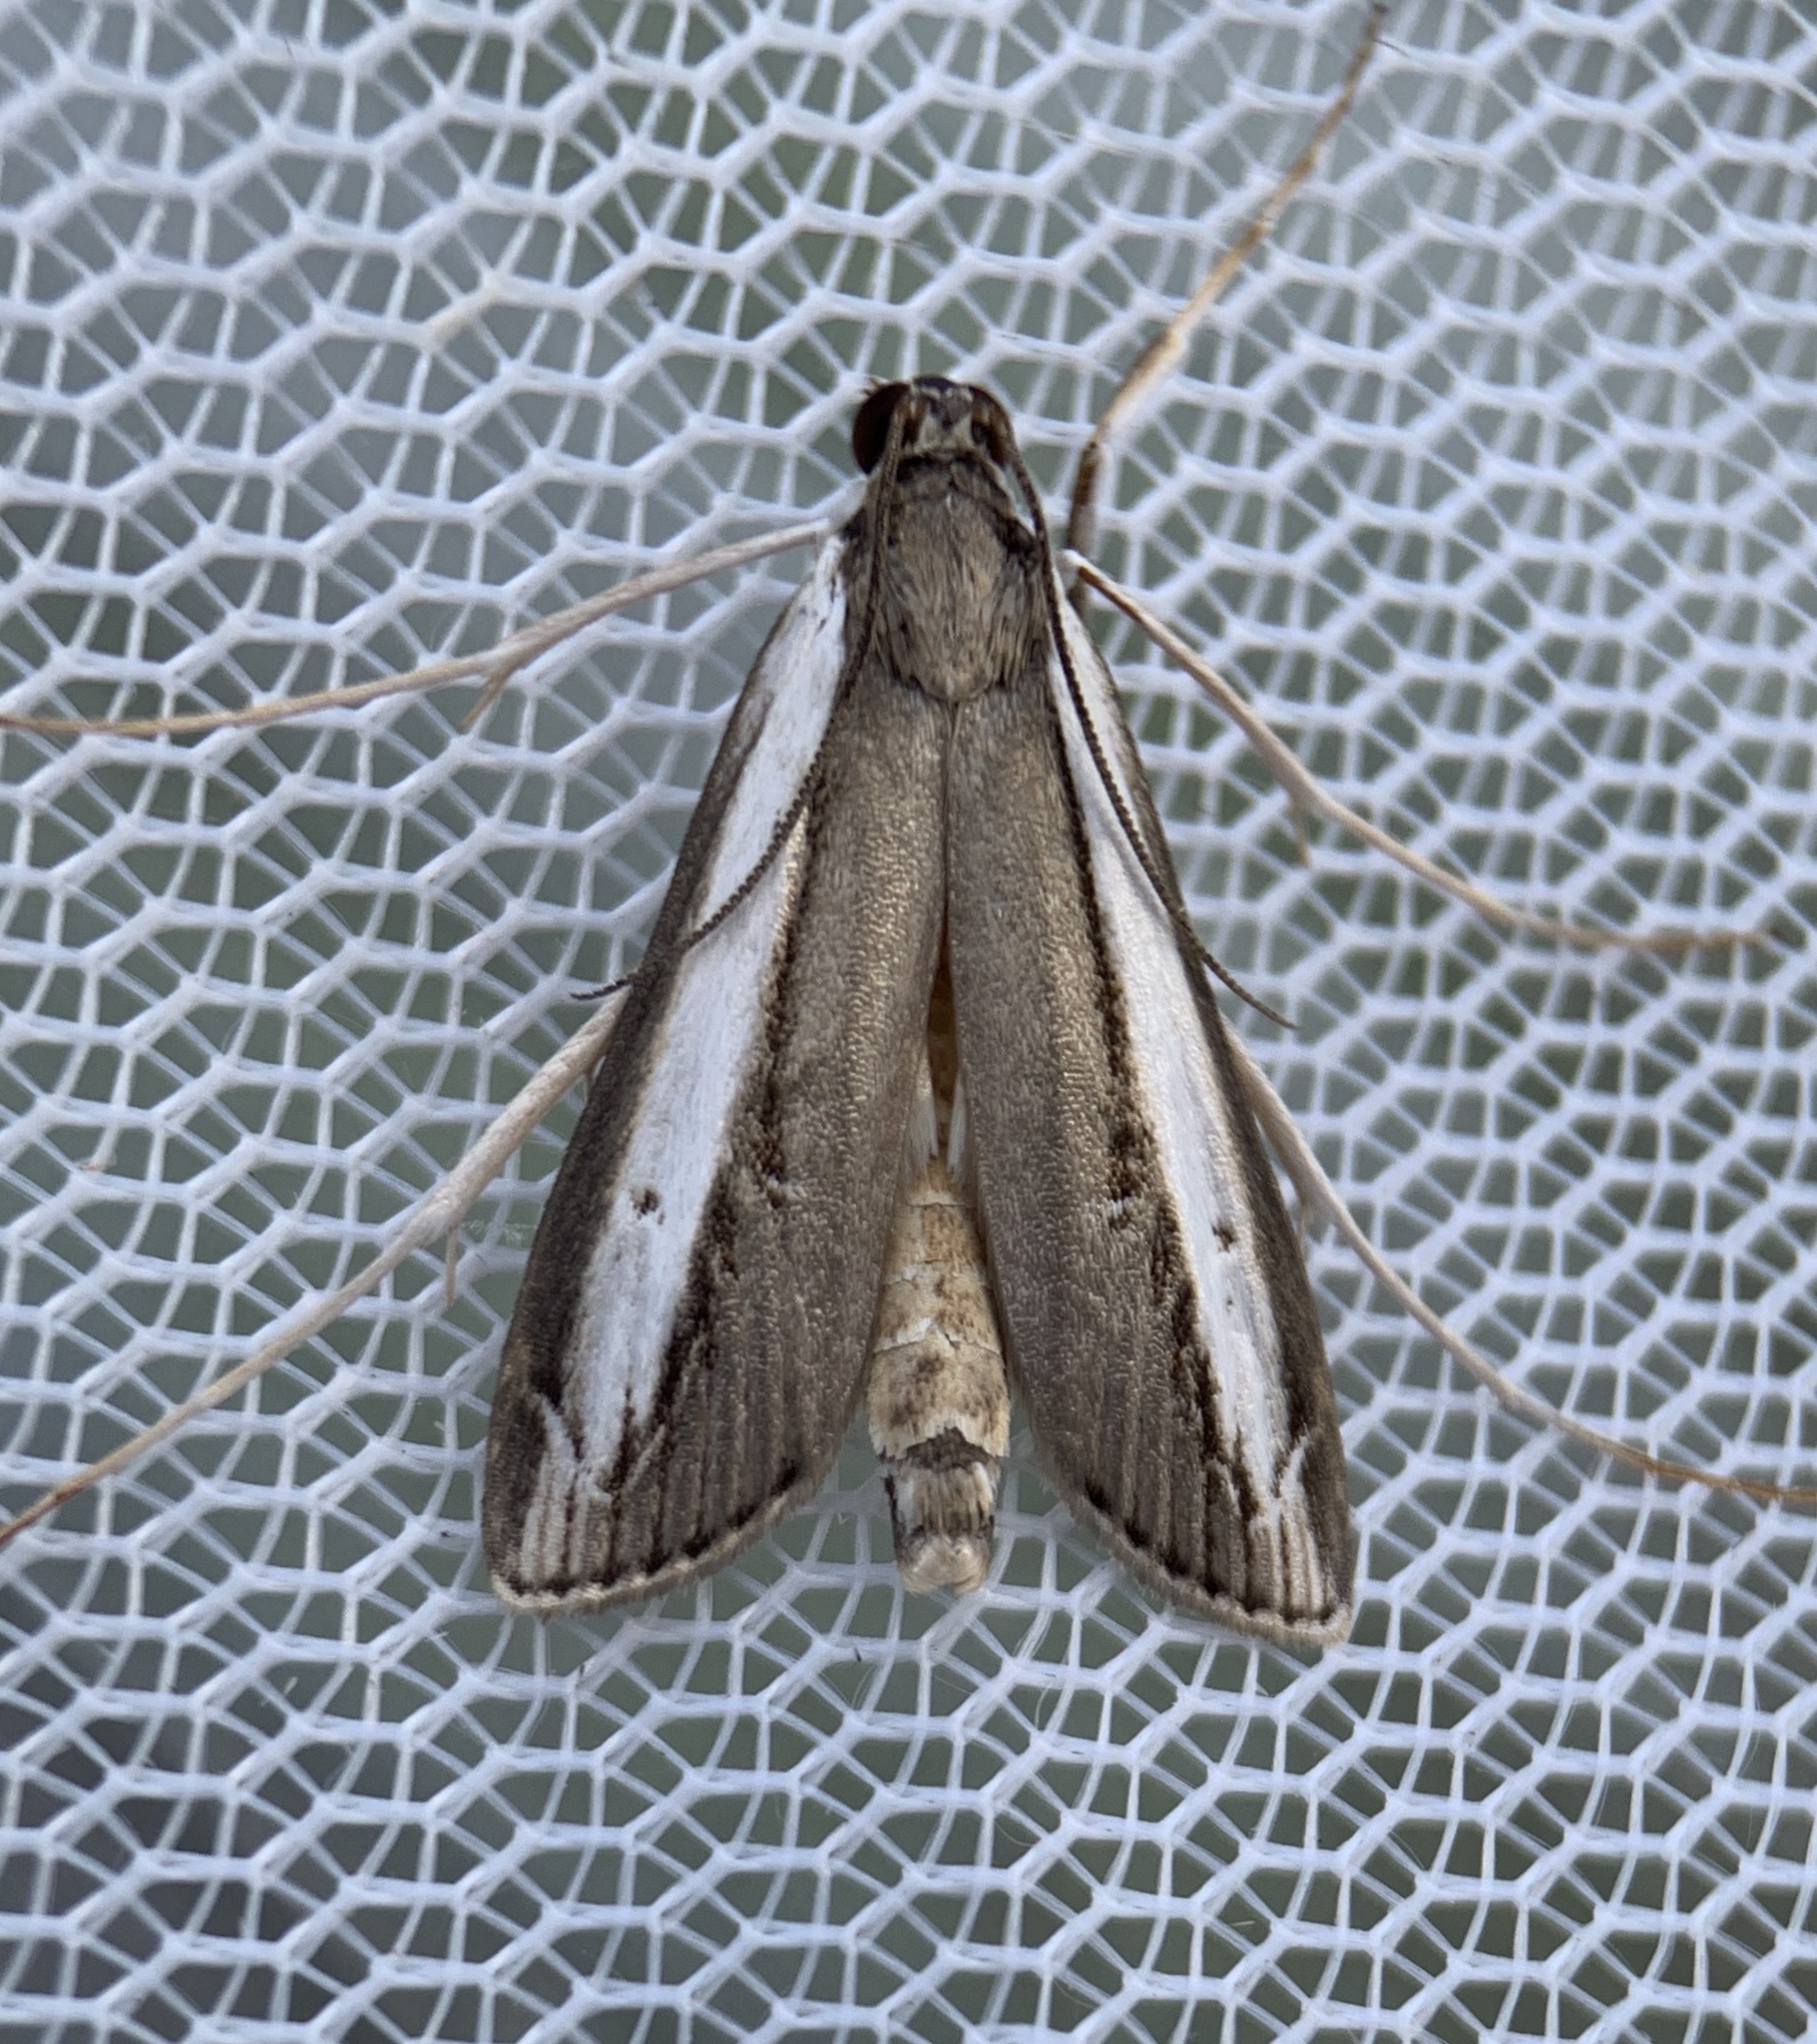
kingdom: Animalia
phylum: Arthropoda
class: Insecta
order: Lepidoptera
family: Crambidae
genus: Carectocultus
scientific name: Carectocultus dominicki
